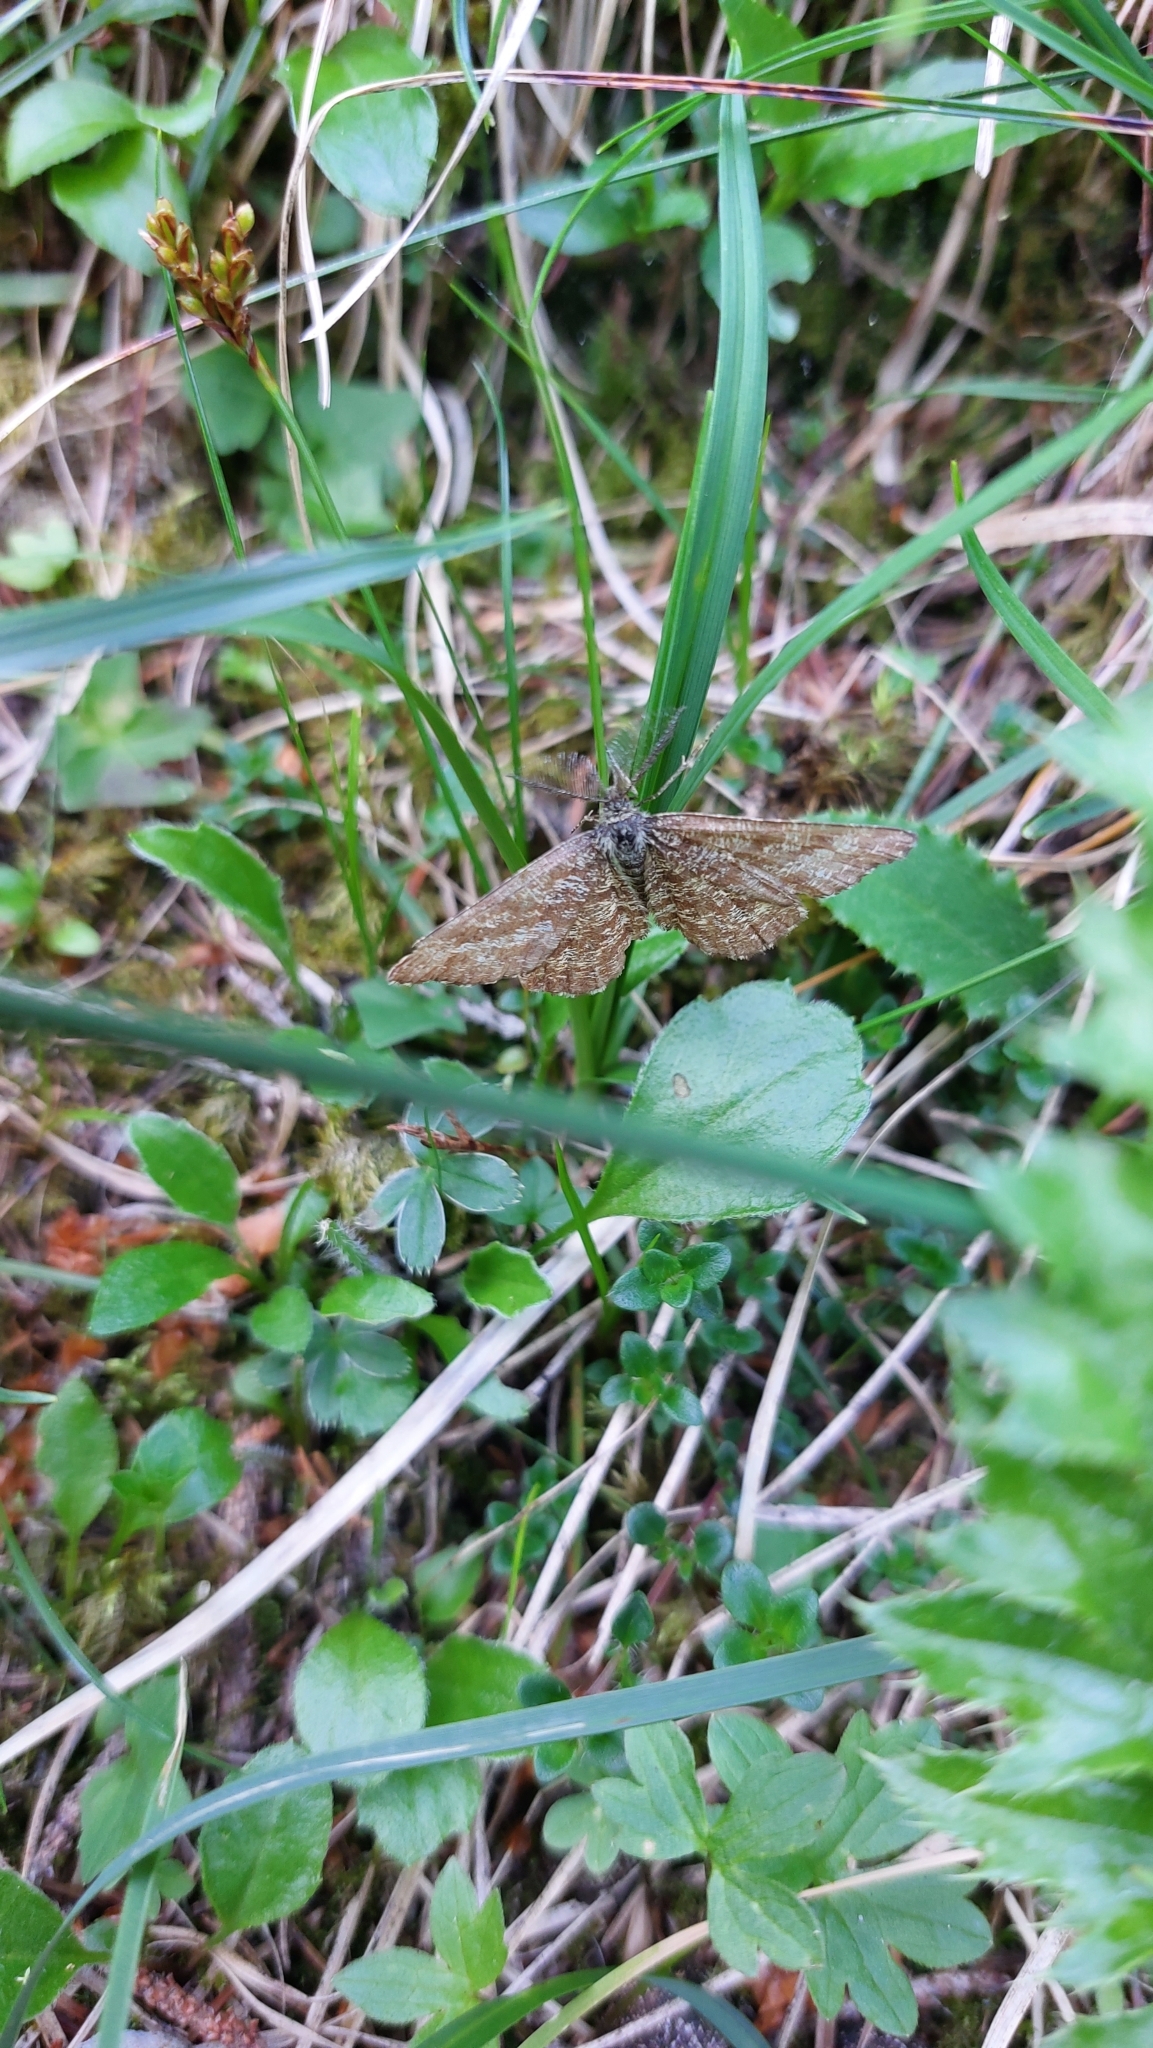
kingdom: Animalia
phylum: Arthropoda
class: Insecta
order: Lepidoptera
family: Geometridae
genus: Ematurga
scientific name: Ematurga atomaria
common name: Common heath
